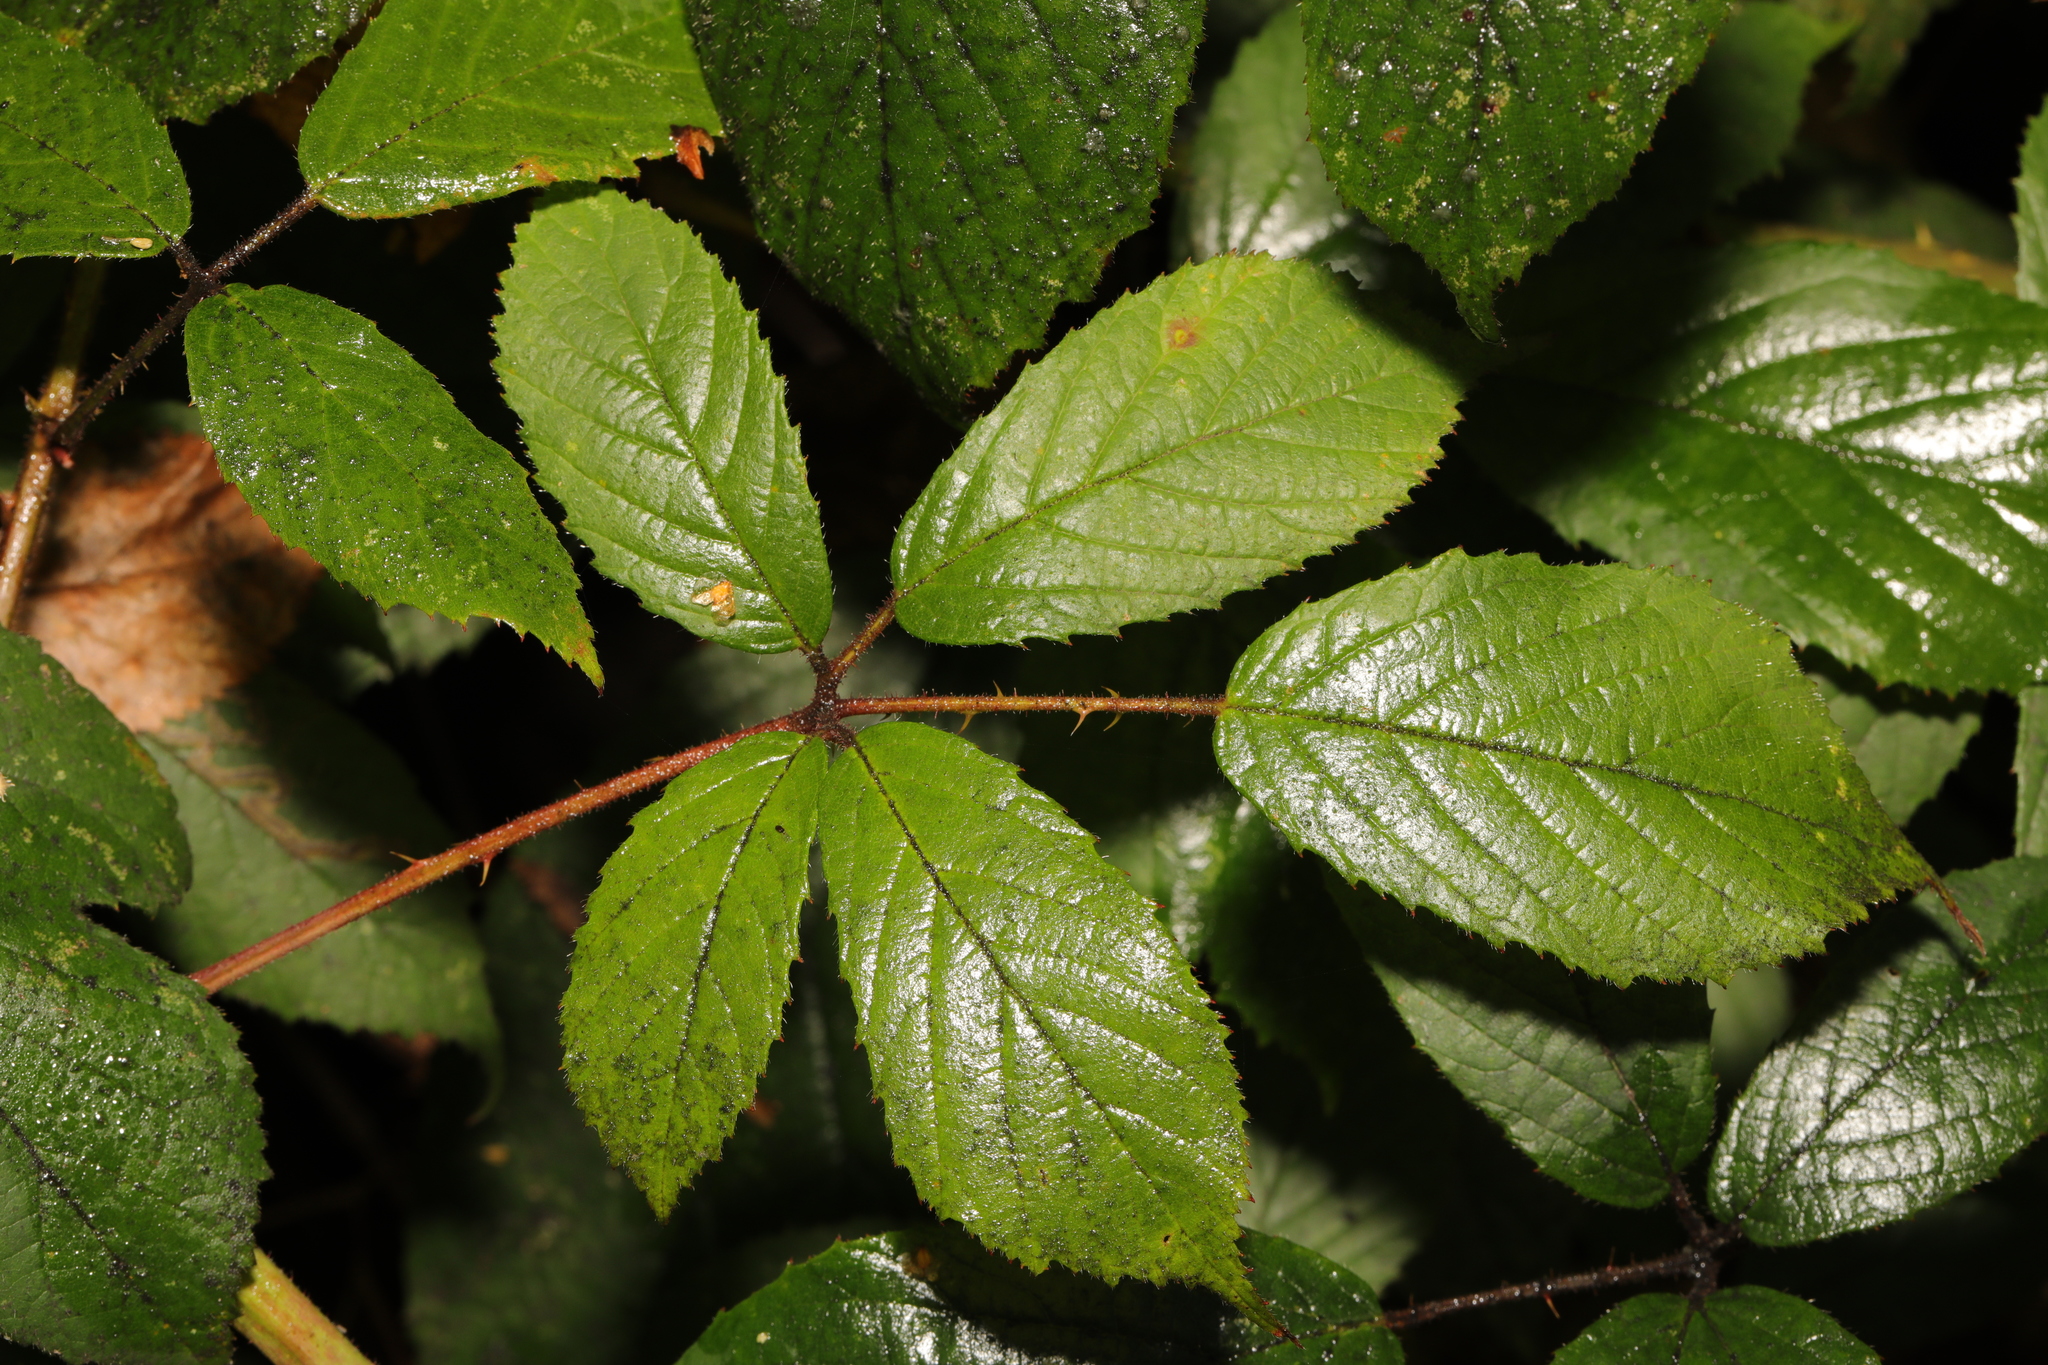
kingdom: Plantae
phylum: Tracheophyta
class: Magnoliopsida
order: Rosales
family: Rosaceae
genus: Rubus
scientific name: Rubus rufescens
